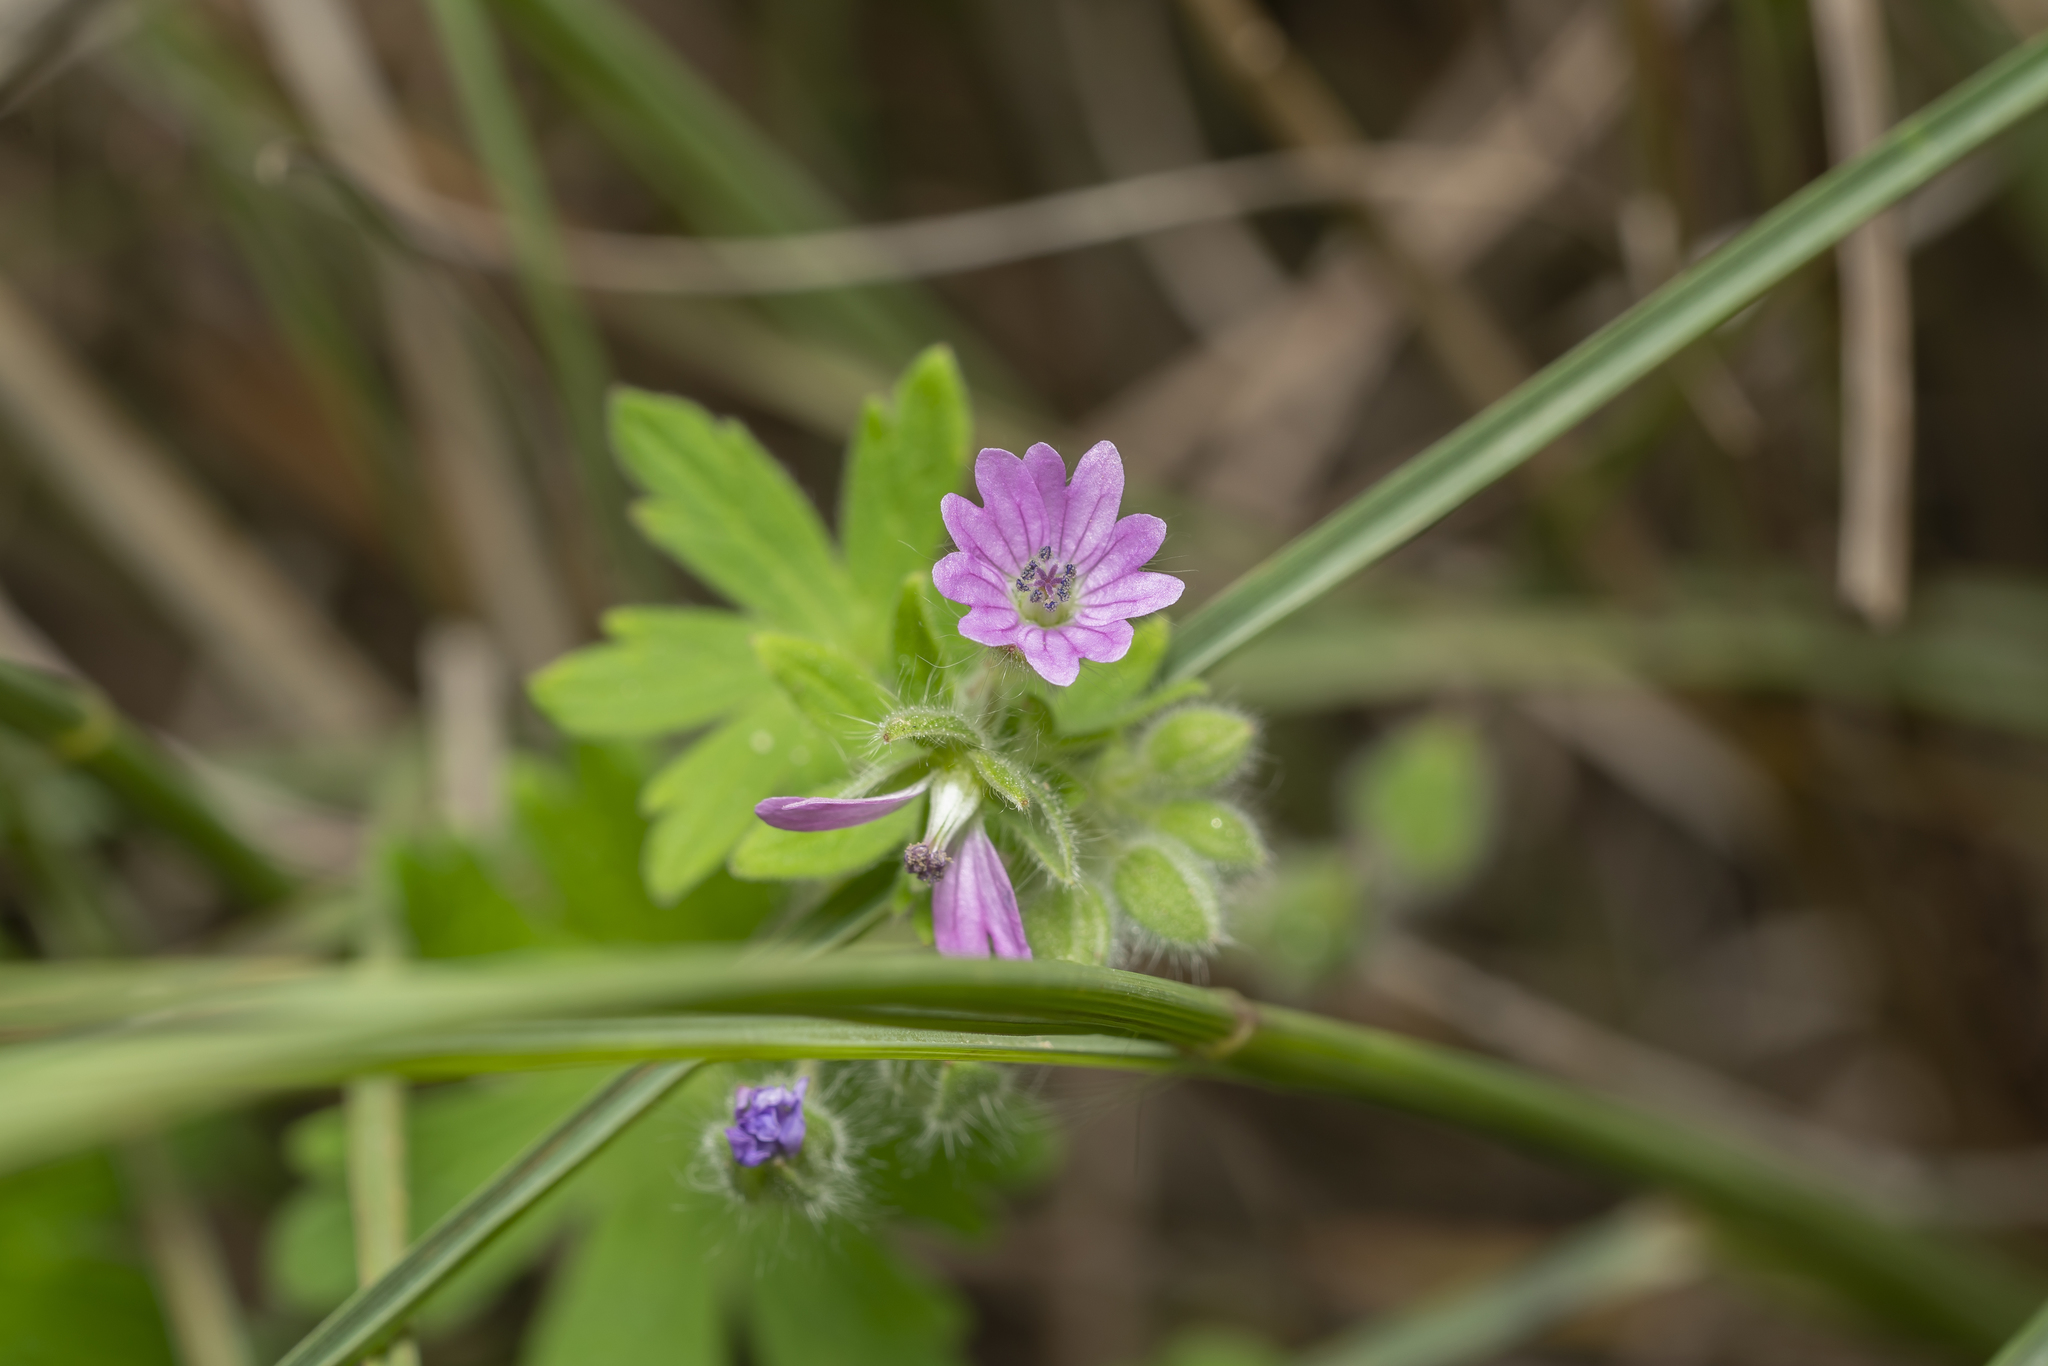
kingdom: Plantae
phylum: Tracheophyta
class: Magnoliopsida
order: Geraniales
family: Geraniaceae
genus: Geranium
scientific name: Geranium molle
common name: Dove's-foot crane's-bill
